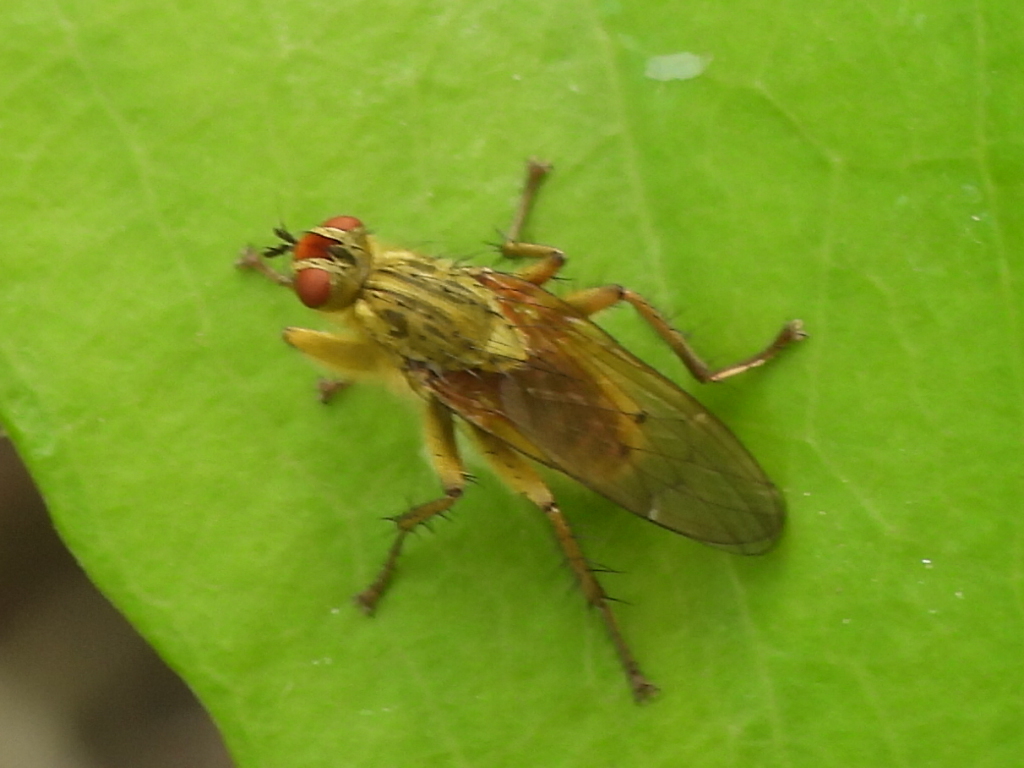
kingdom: Animalia
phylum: Arthropoda
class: Insecta
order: Diptera
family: Scathophagidae
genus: Scathophaga
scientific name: Scathophaga stercoraria
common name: Yellow dung fly
